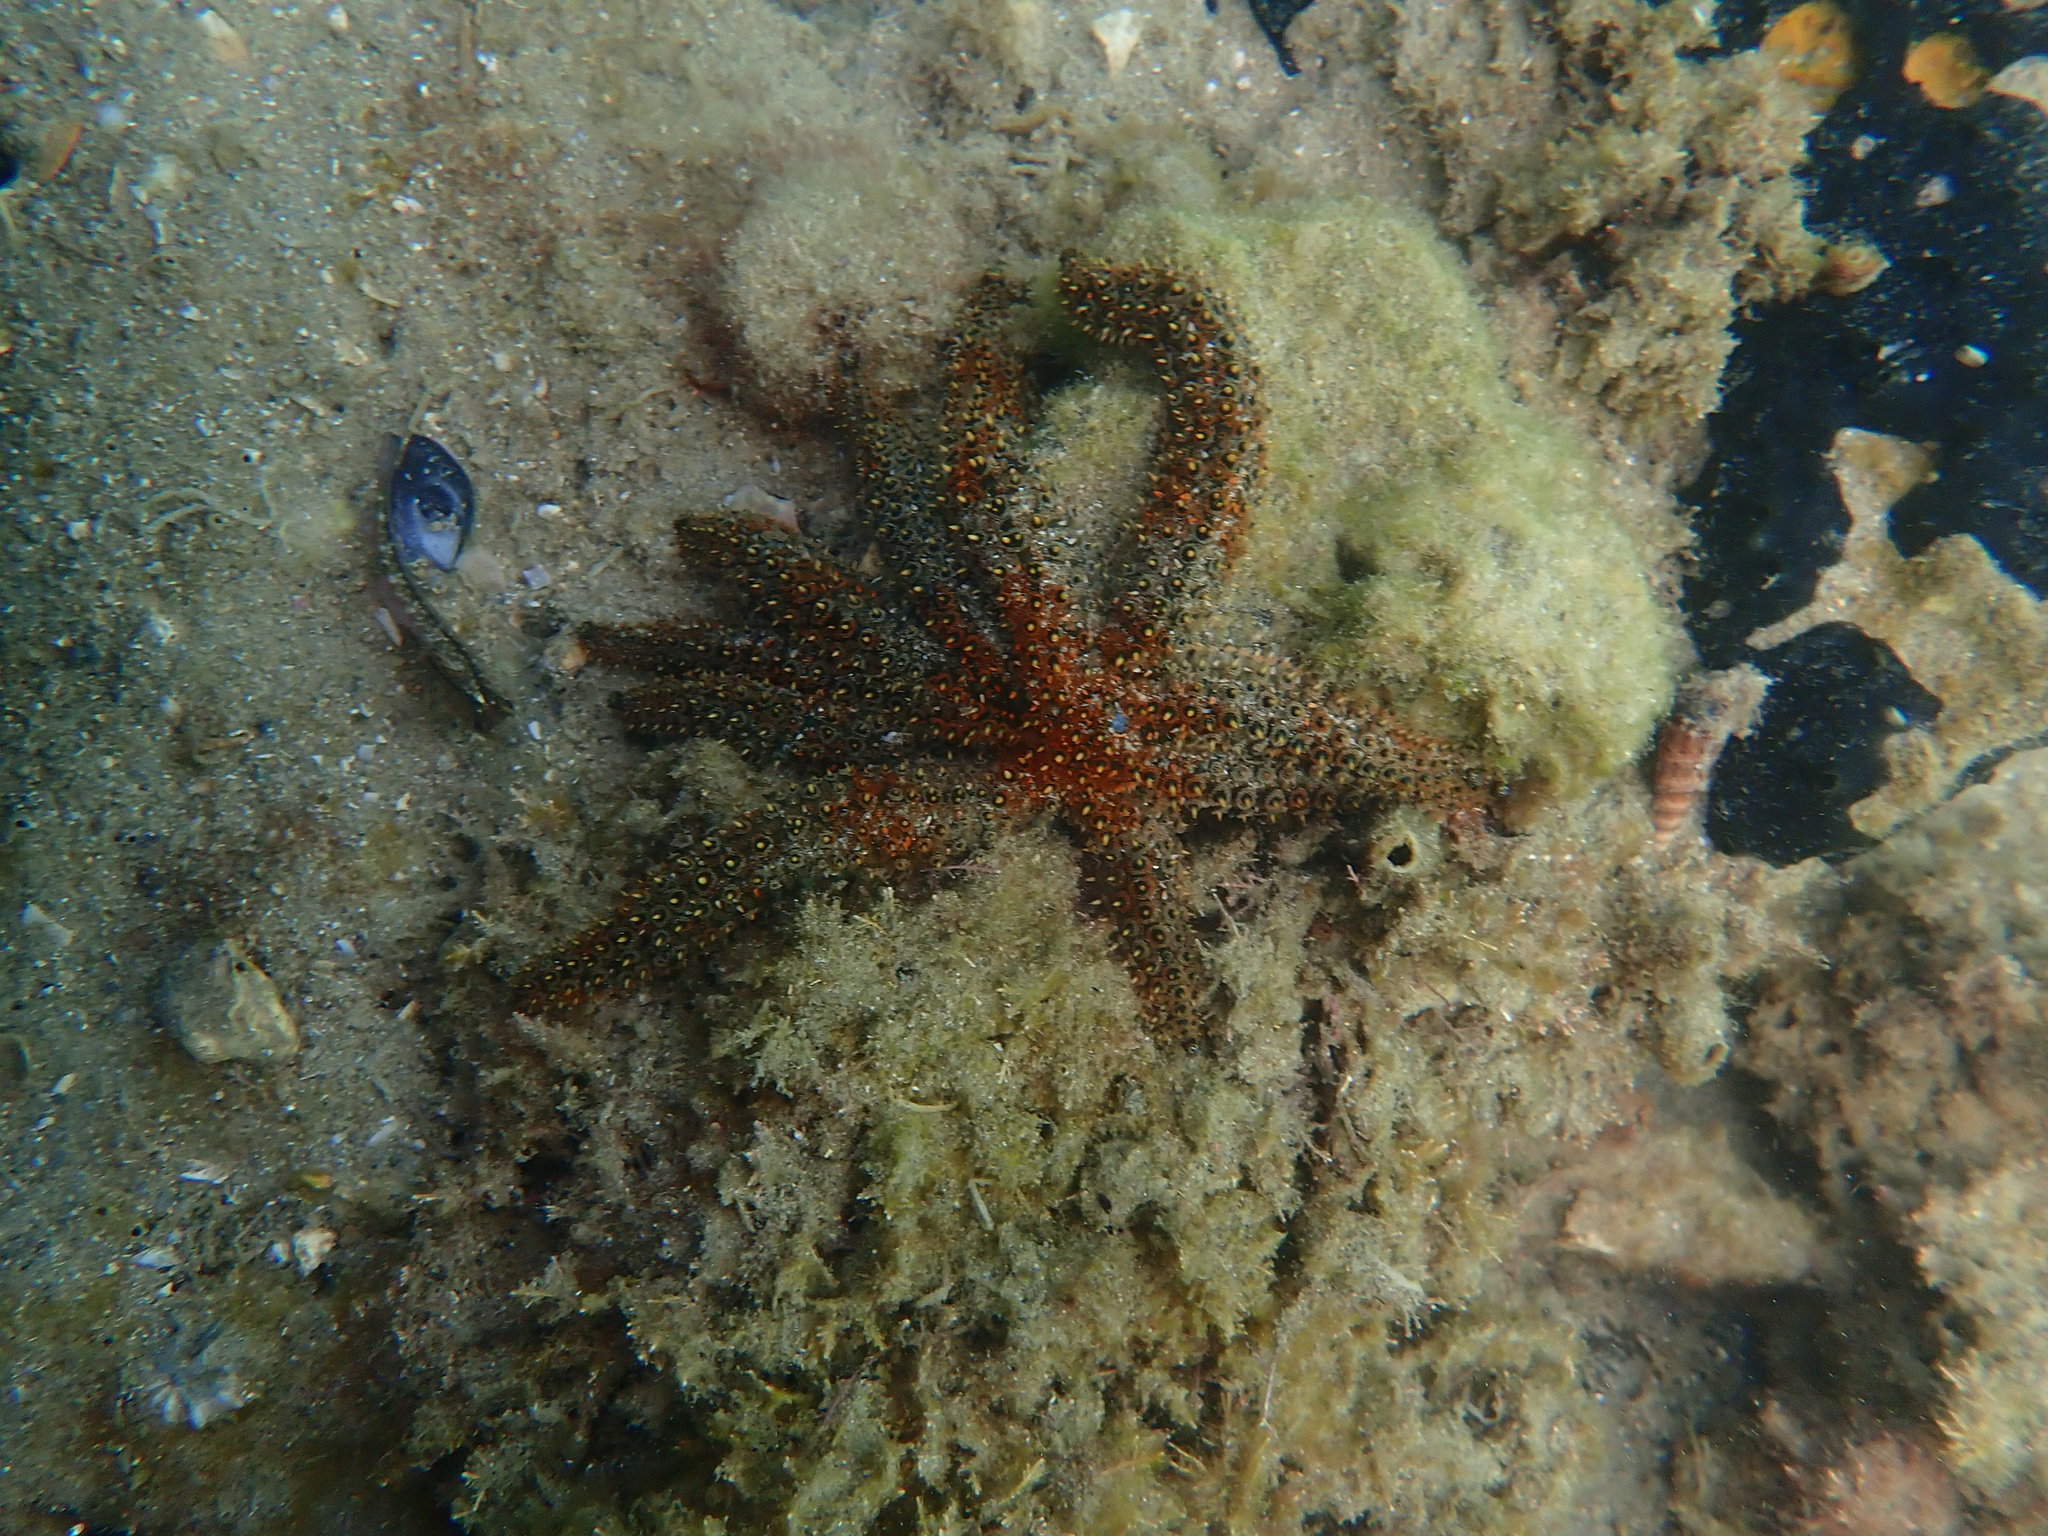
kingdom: Animalia
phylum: Echinodermata
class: Asteroidea
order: Forcipulatida
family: Asteriidae
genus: Coscinasterias
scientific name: Coscinasterias muricata
